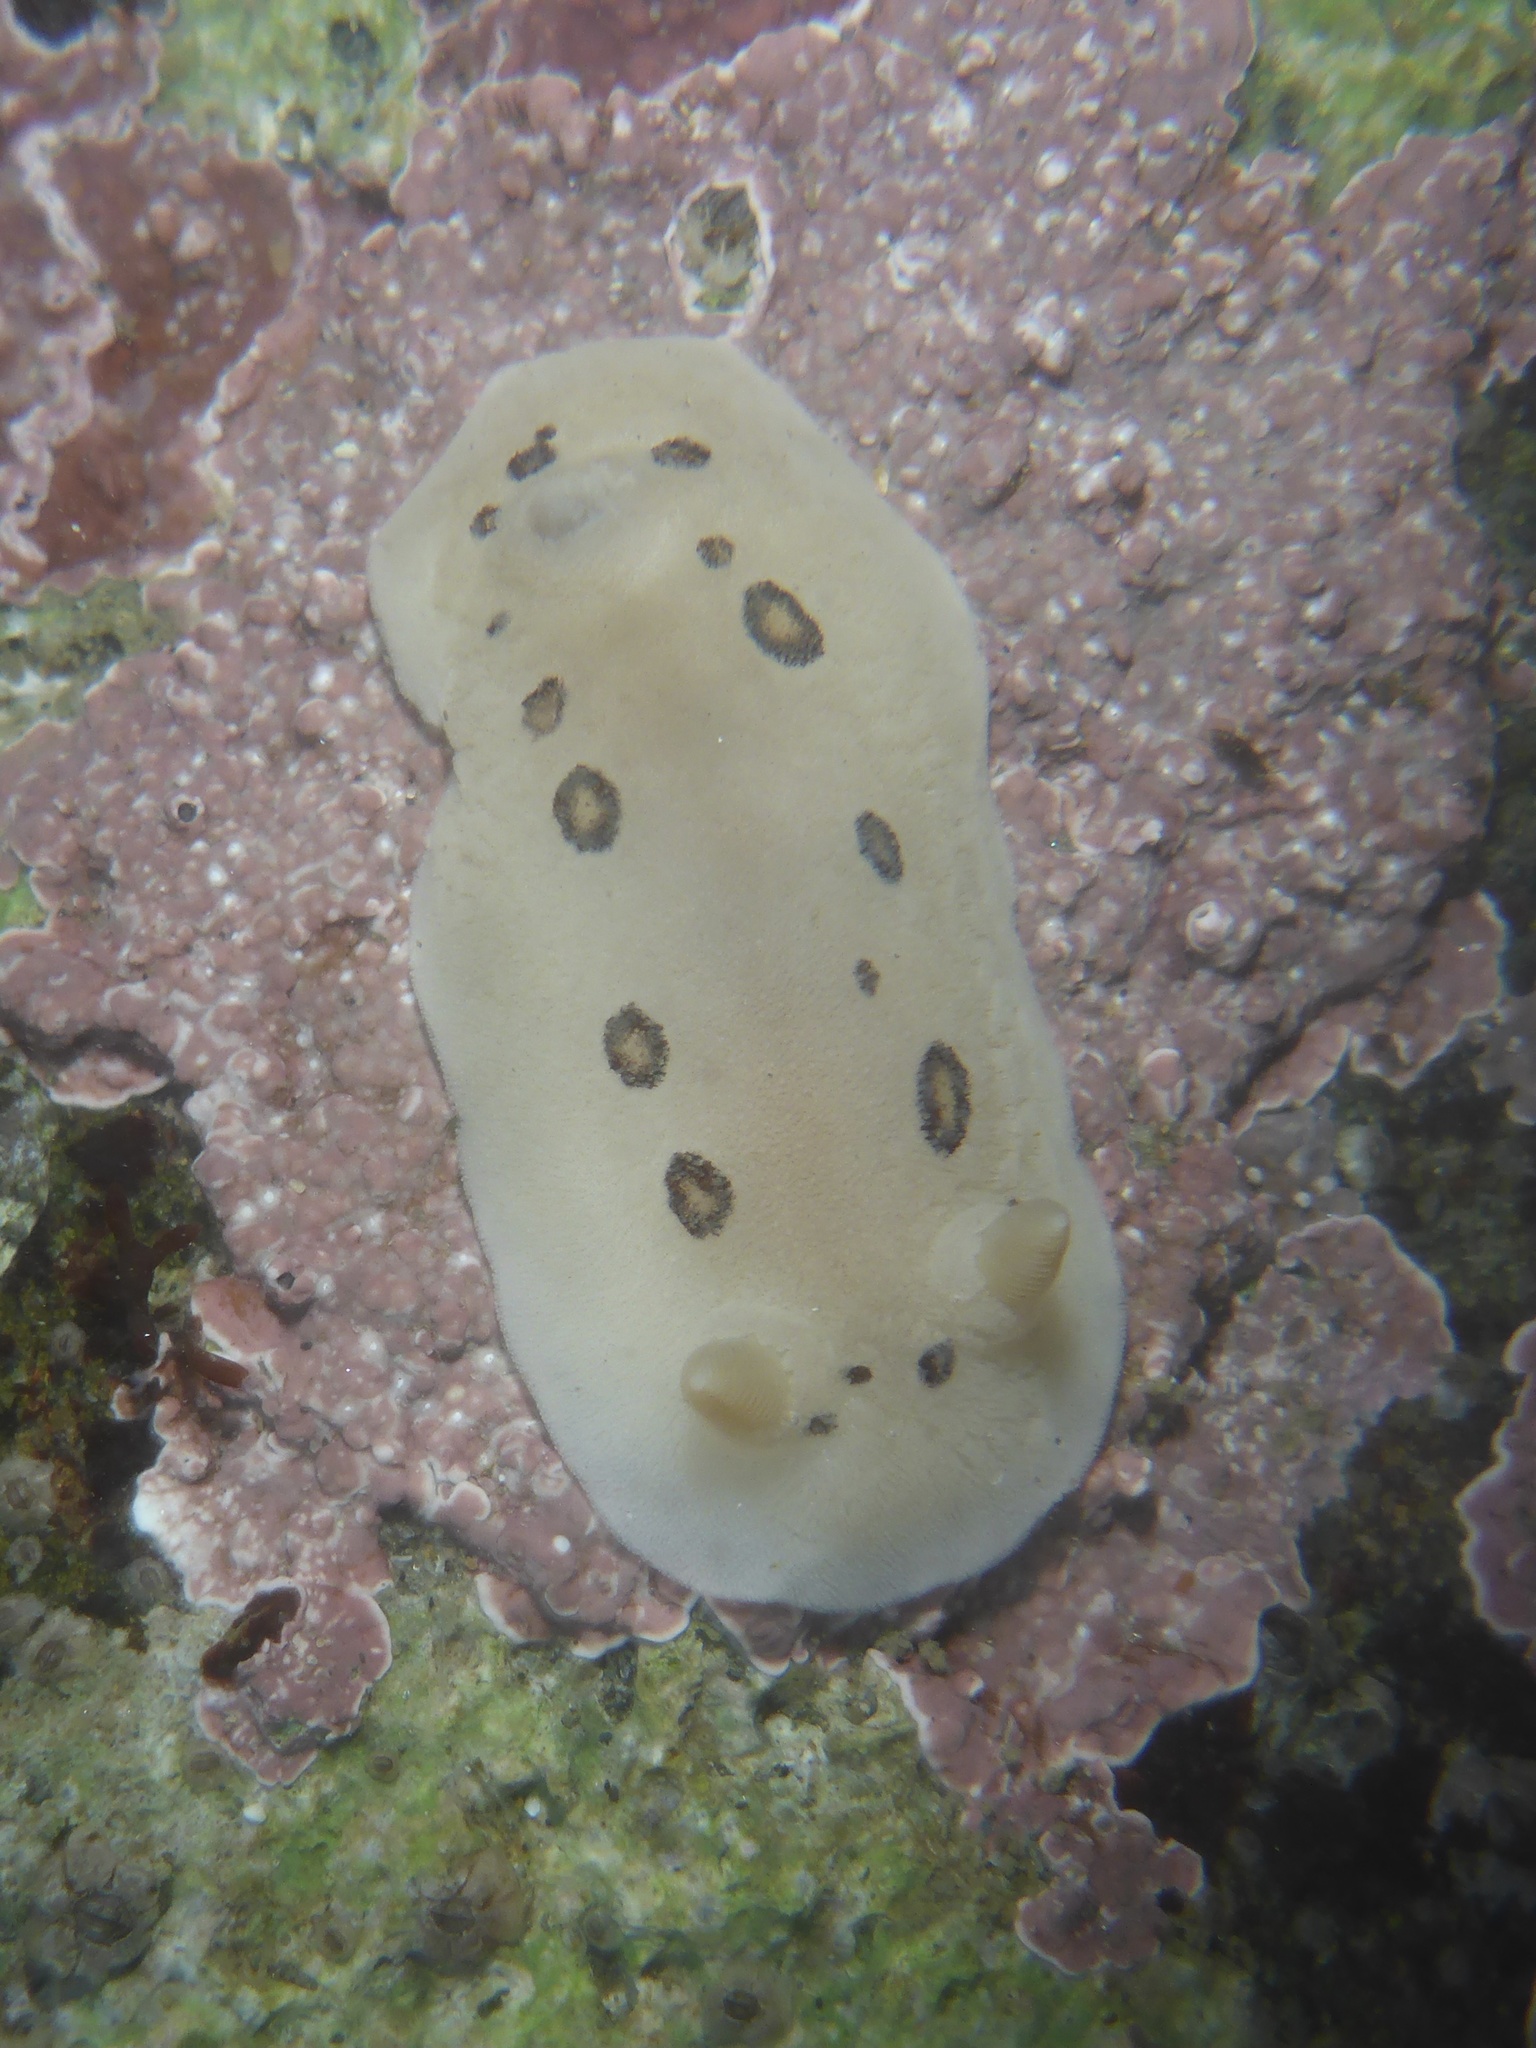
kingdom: Animalia
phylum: Mollusca
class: Gastropoda
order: Nudibranchia
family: Discodorididae
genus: Diaulula
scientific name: Diaulula sandiegensis
